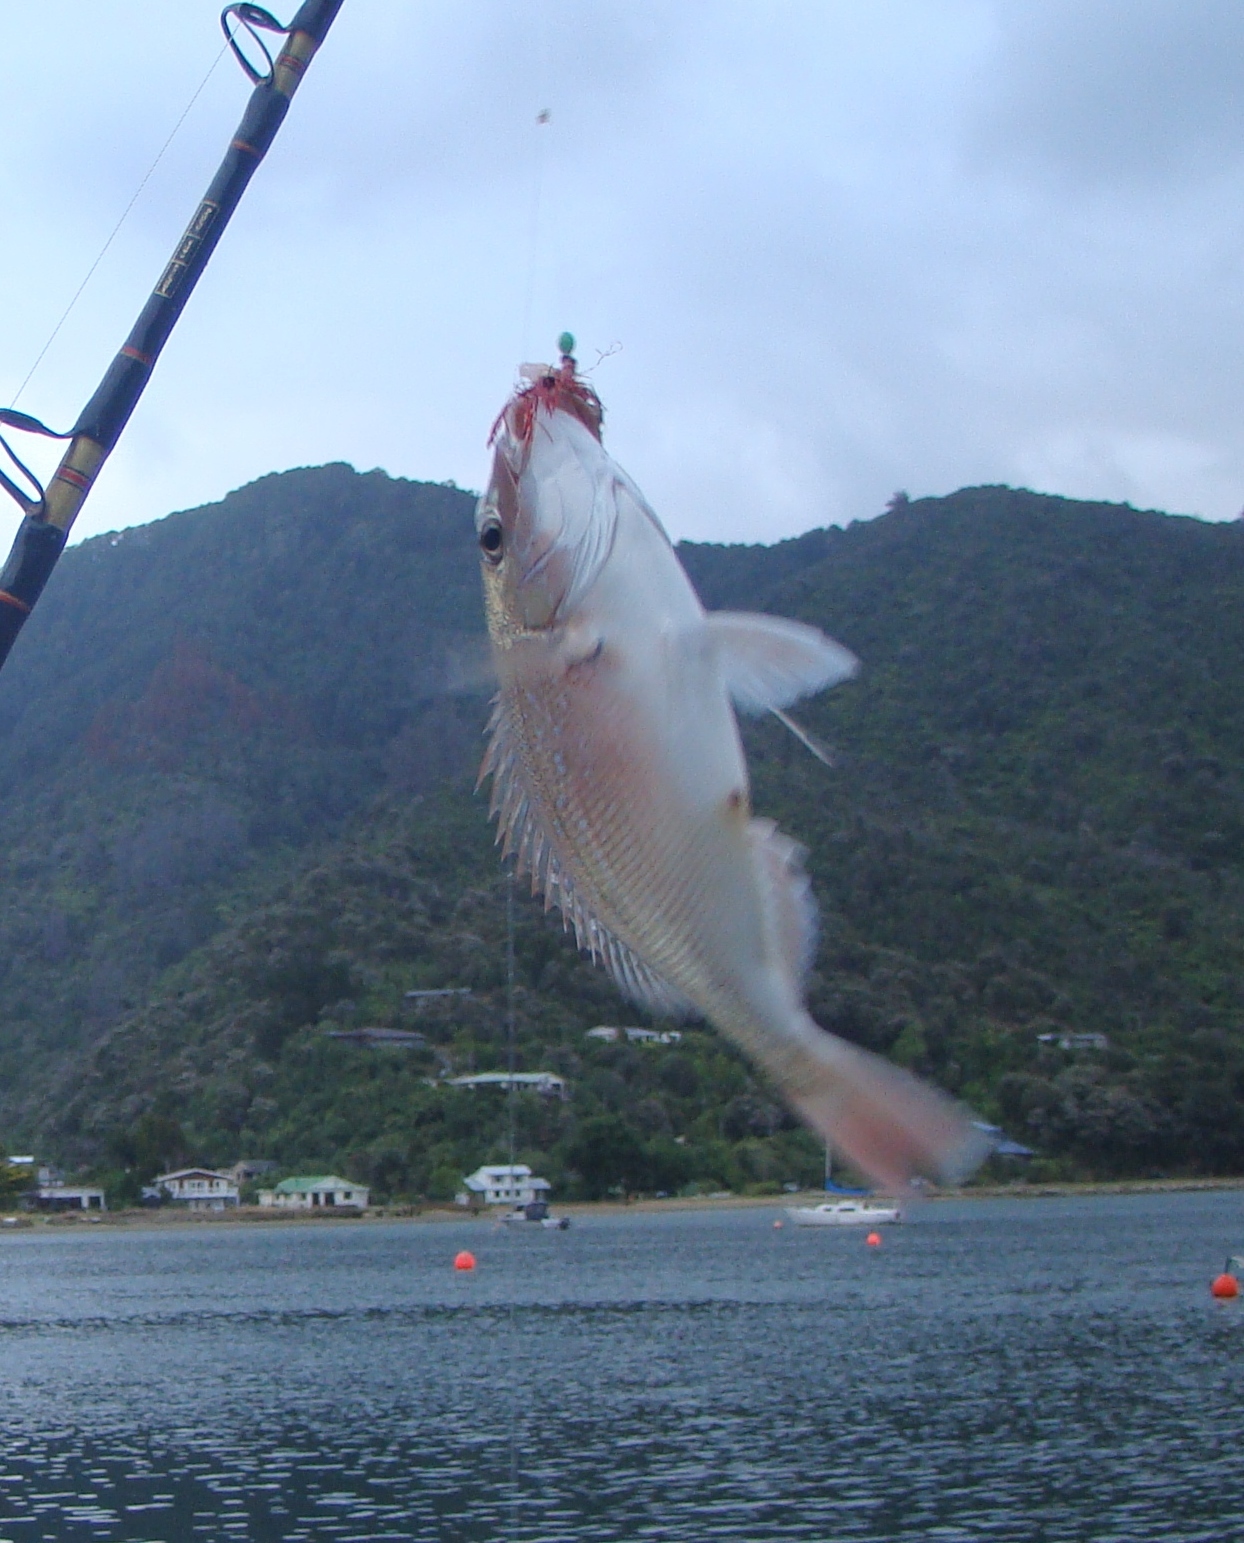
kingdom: Animalia
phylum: Chordata
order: Perciformes
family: Sparidae
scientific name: Sparidae
